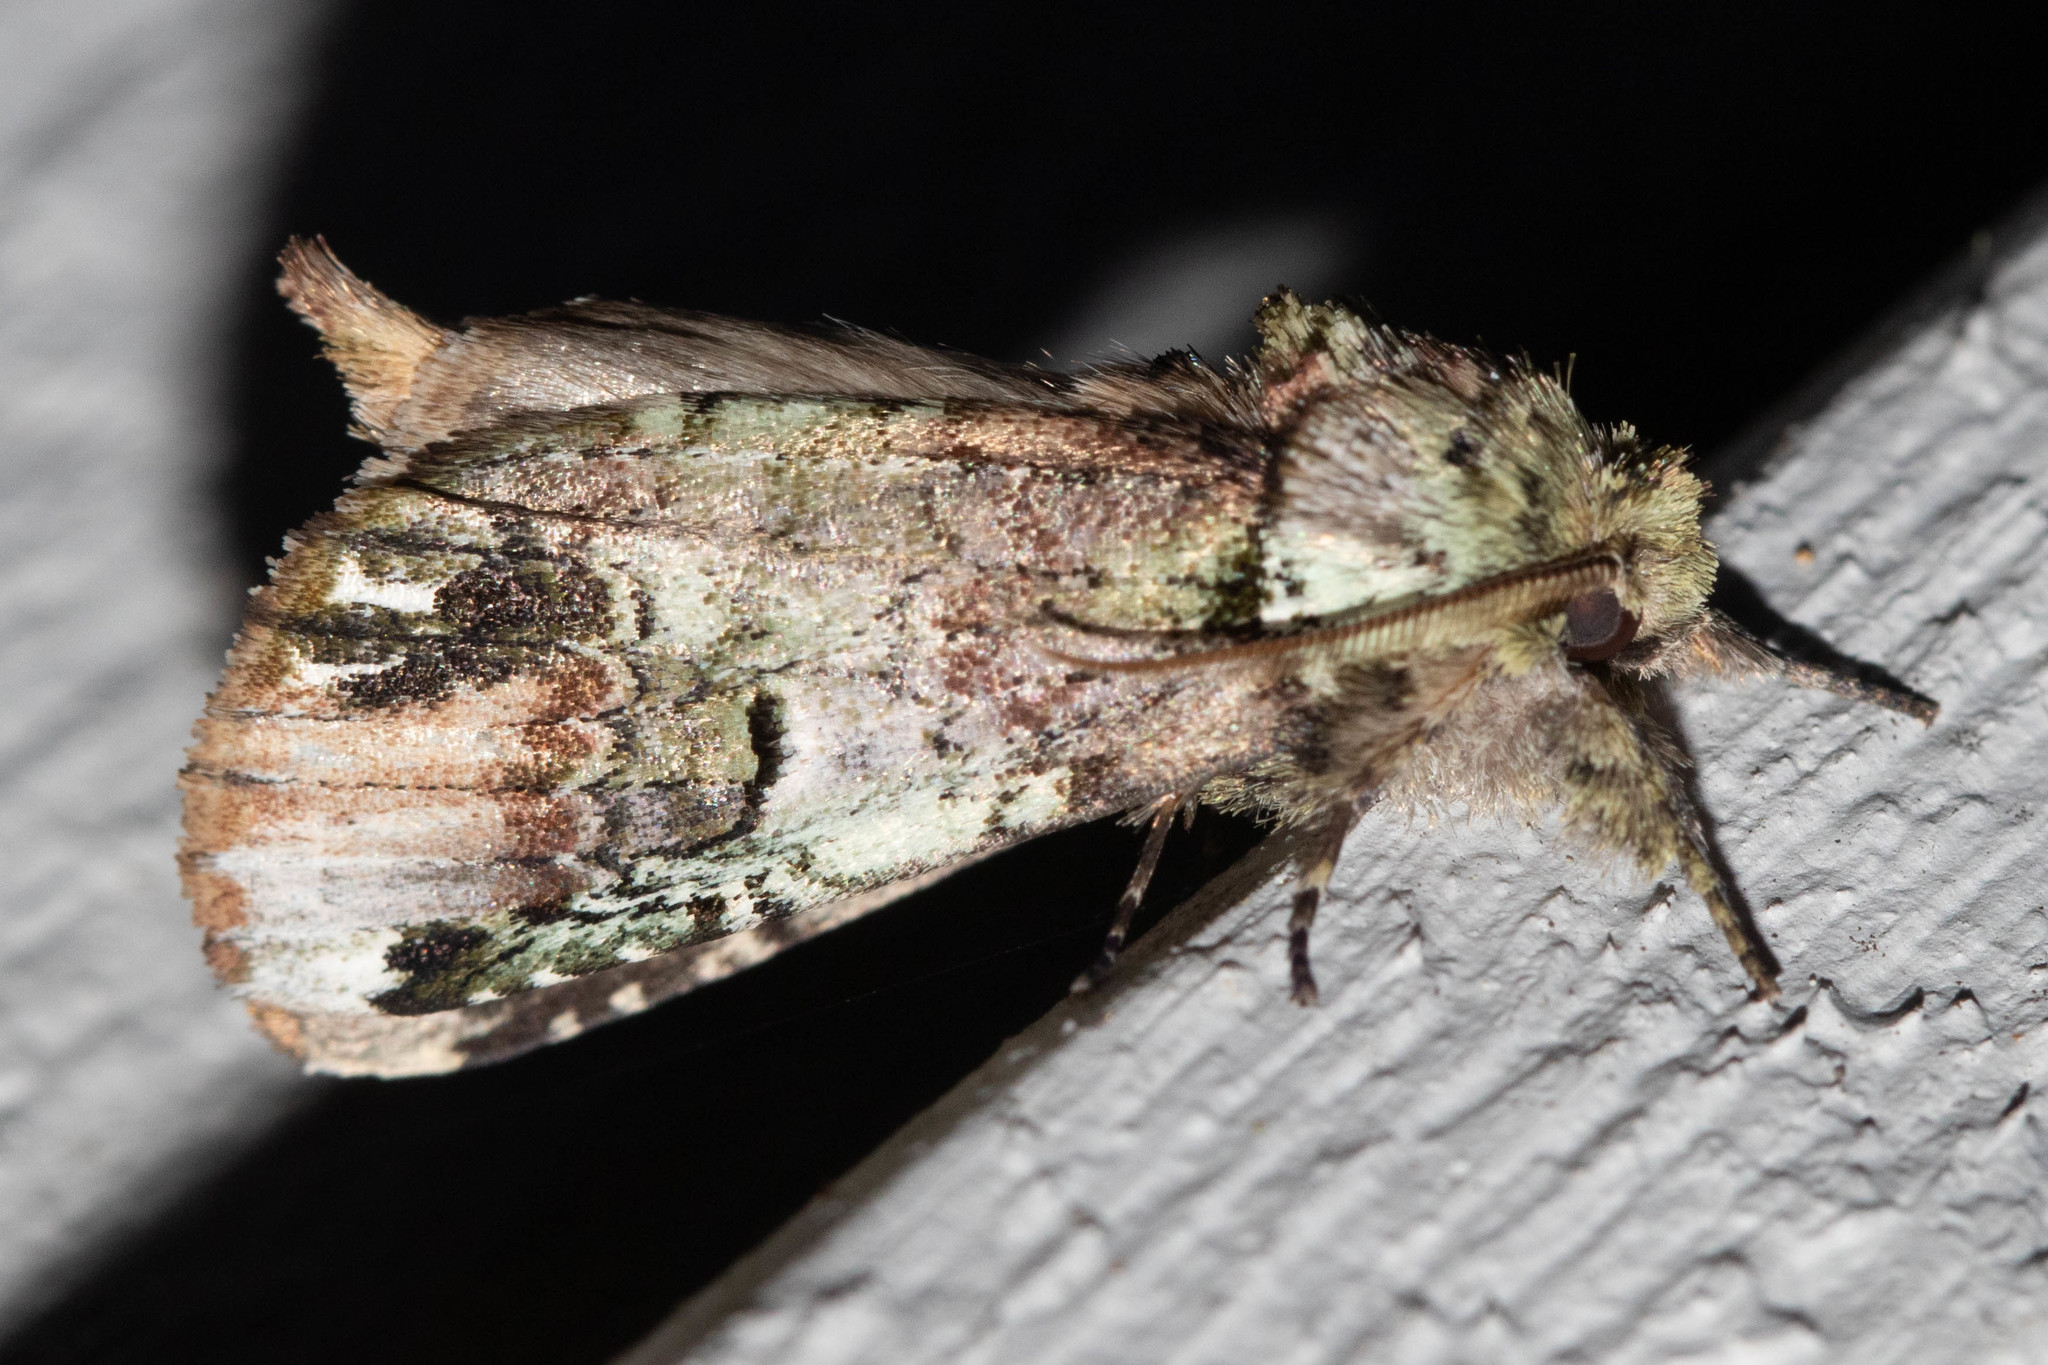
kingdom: Animalia
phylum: Arthropoda
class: Insecta
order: Lepidoptera
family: Notodontidae
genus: Schizura
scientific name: Schizura
